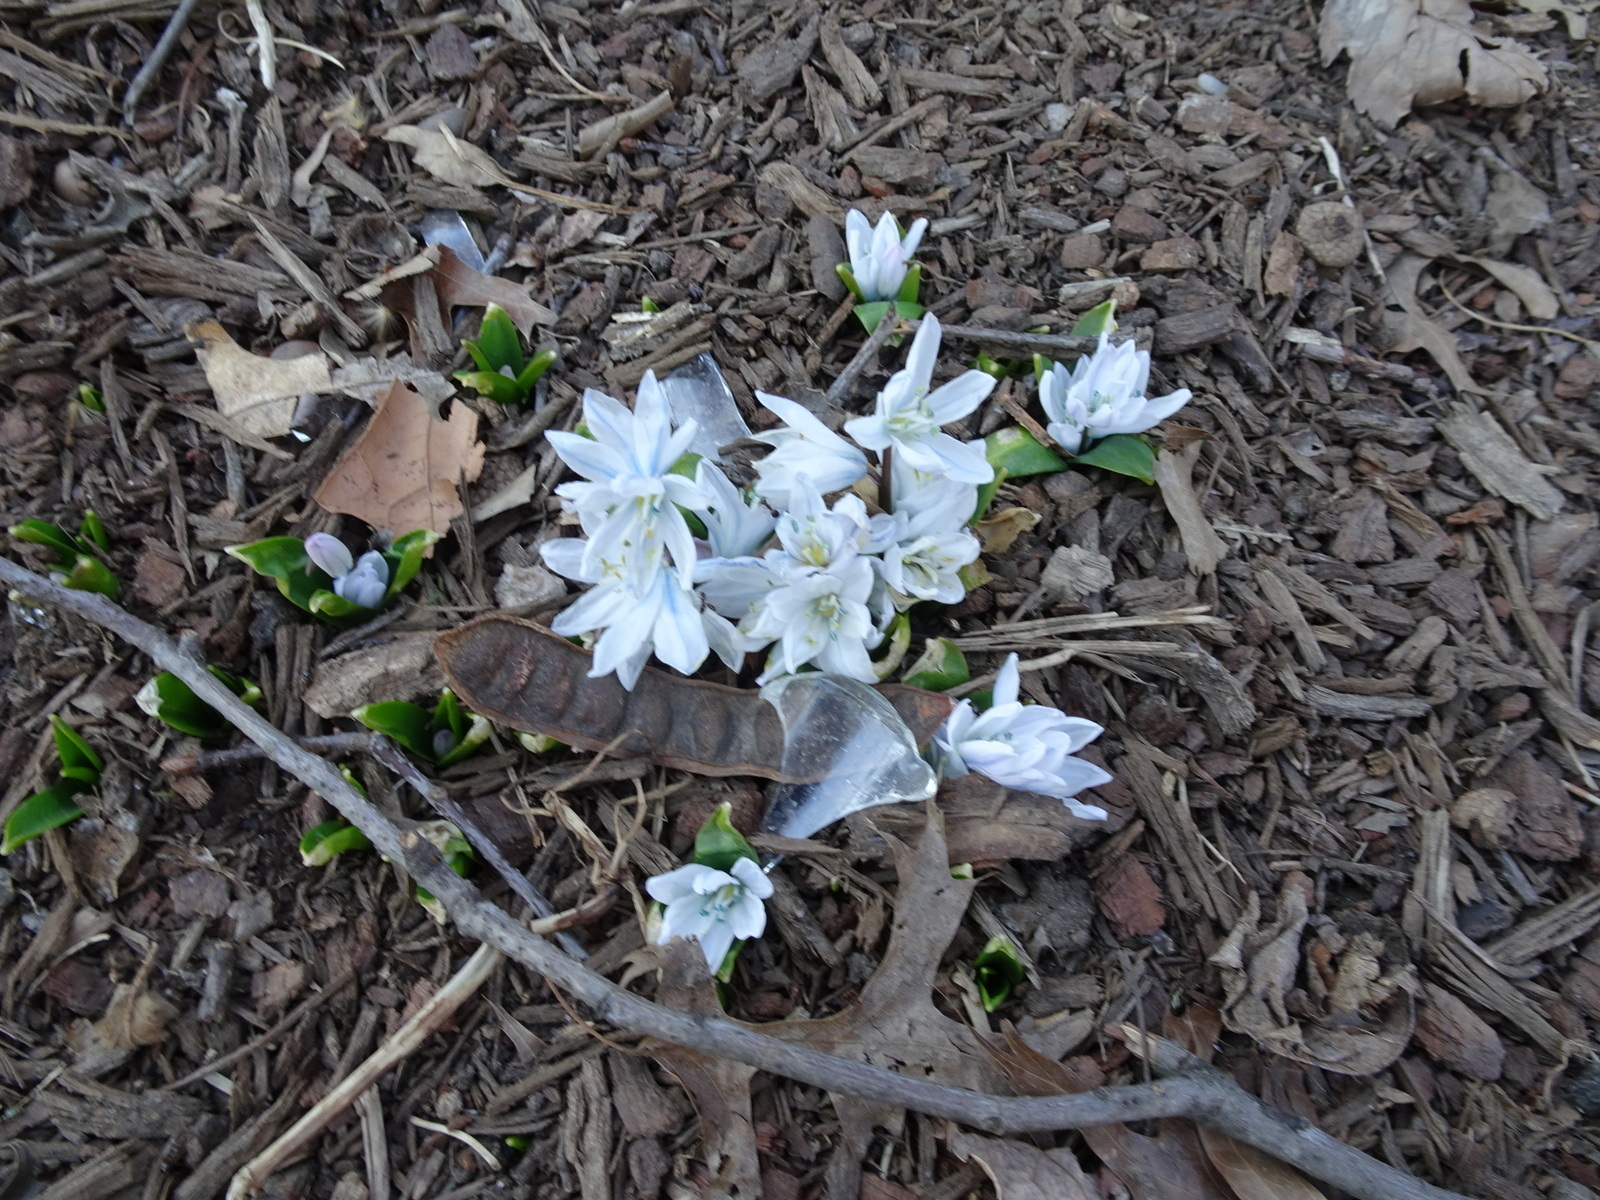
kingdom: Plantae
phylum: Tracheophyta
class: Liliopsida
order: Asparagales
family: Asparagaceae
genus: Scilla
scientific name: Scilla mischtschenkoana
